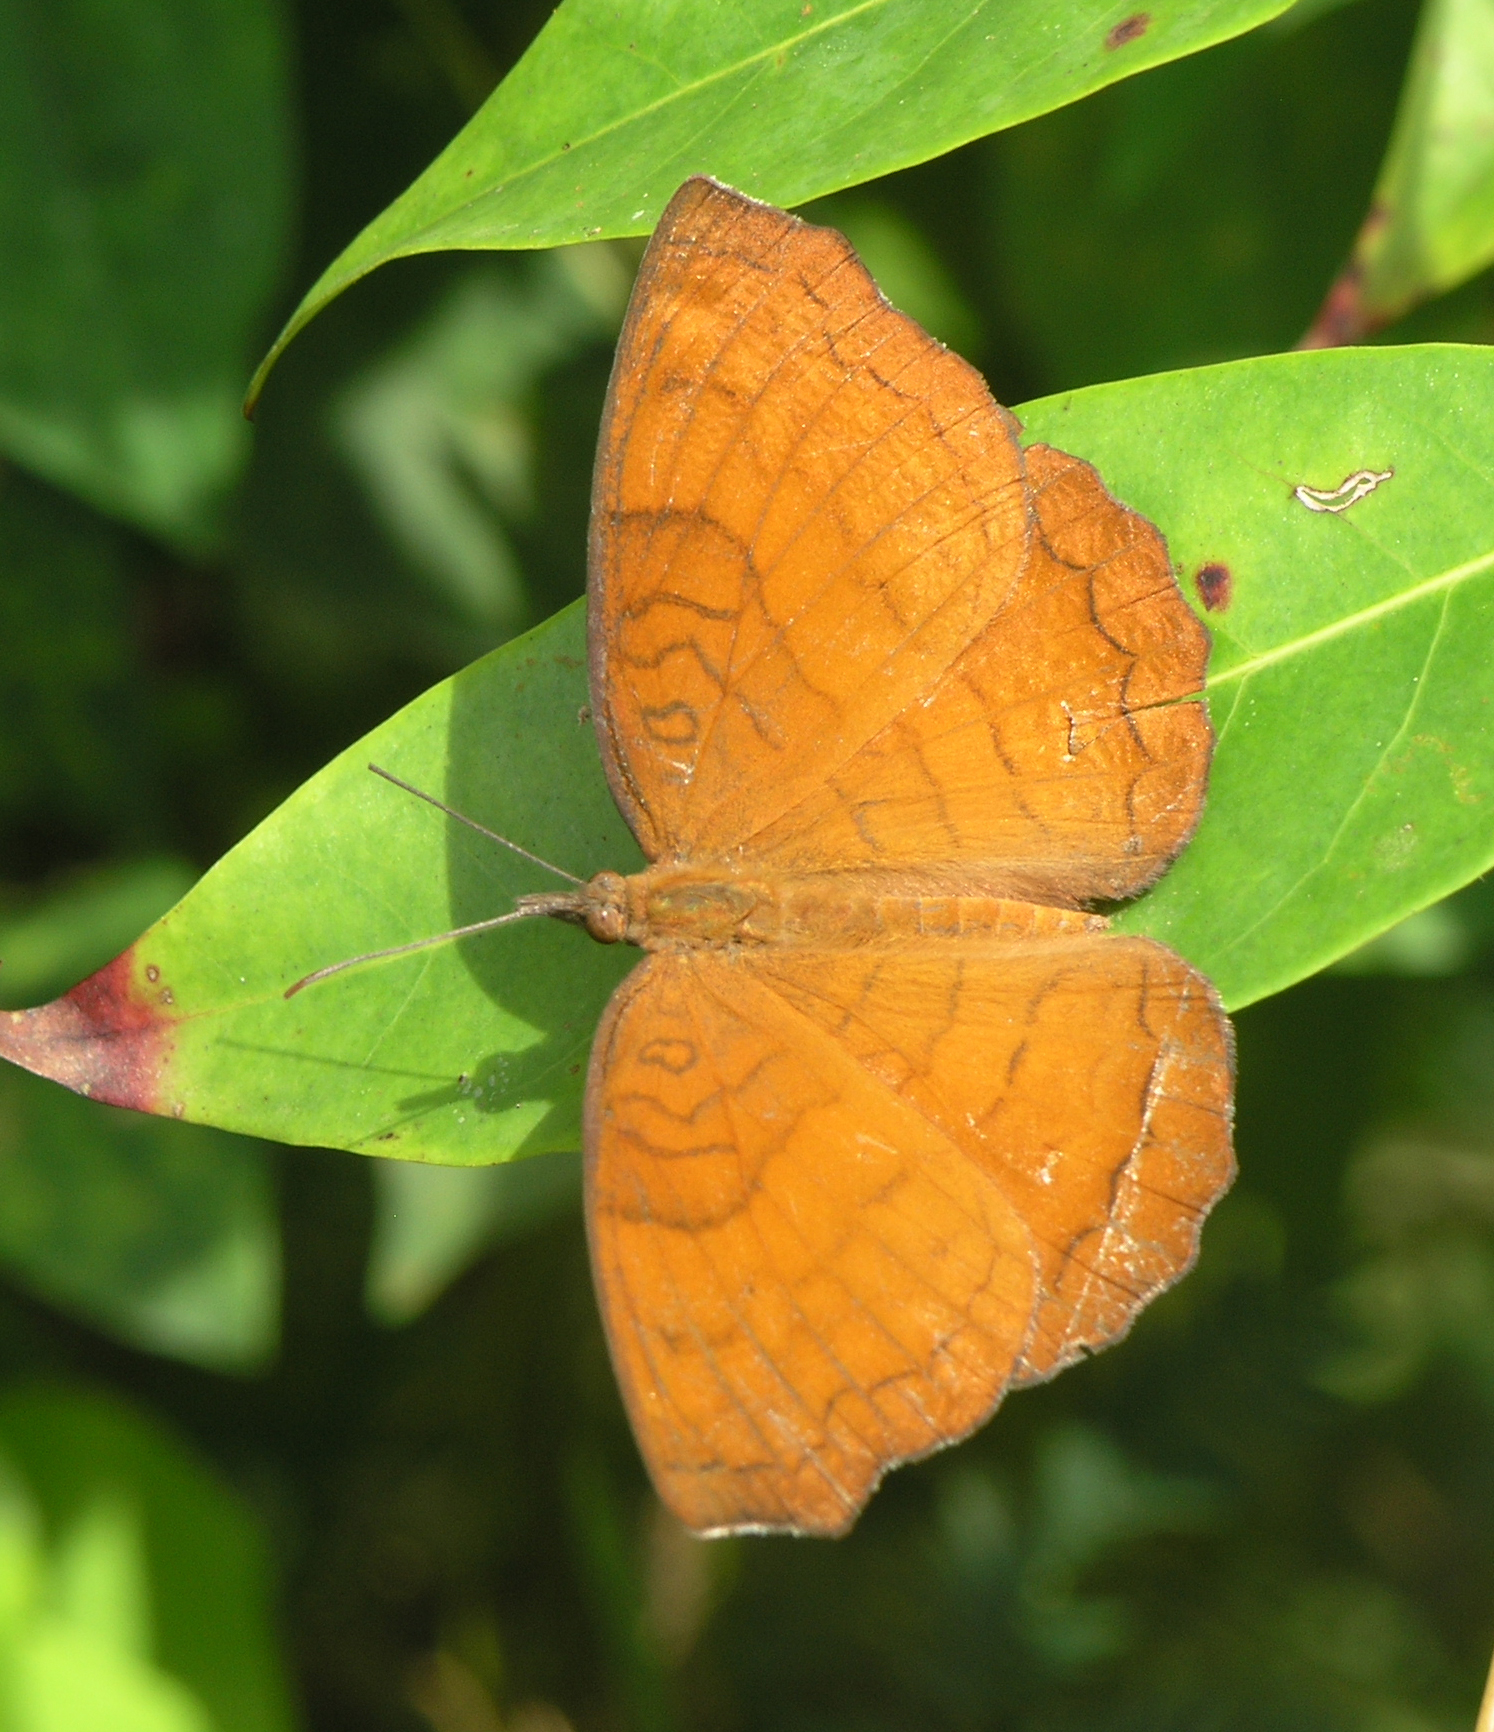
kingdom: Animalia
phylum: Arthropoda
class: Insecta
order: Lepidoptera
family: Nymphalidae
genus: Ariadne
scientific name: Ariadne specularia
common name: Banded castor
